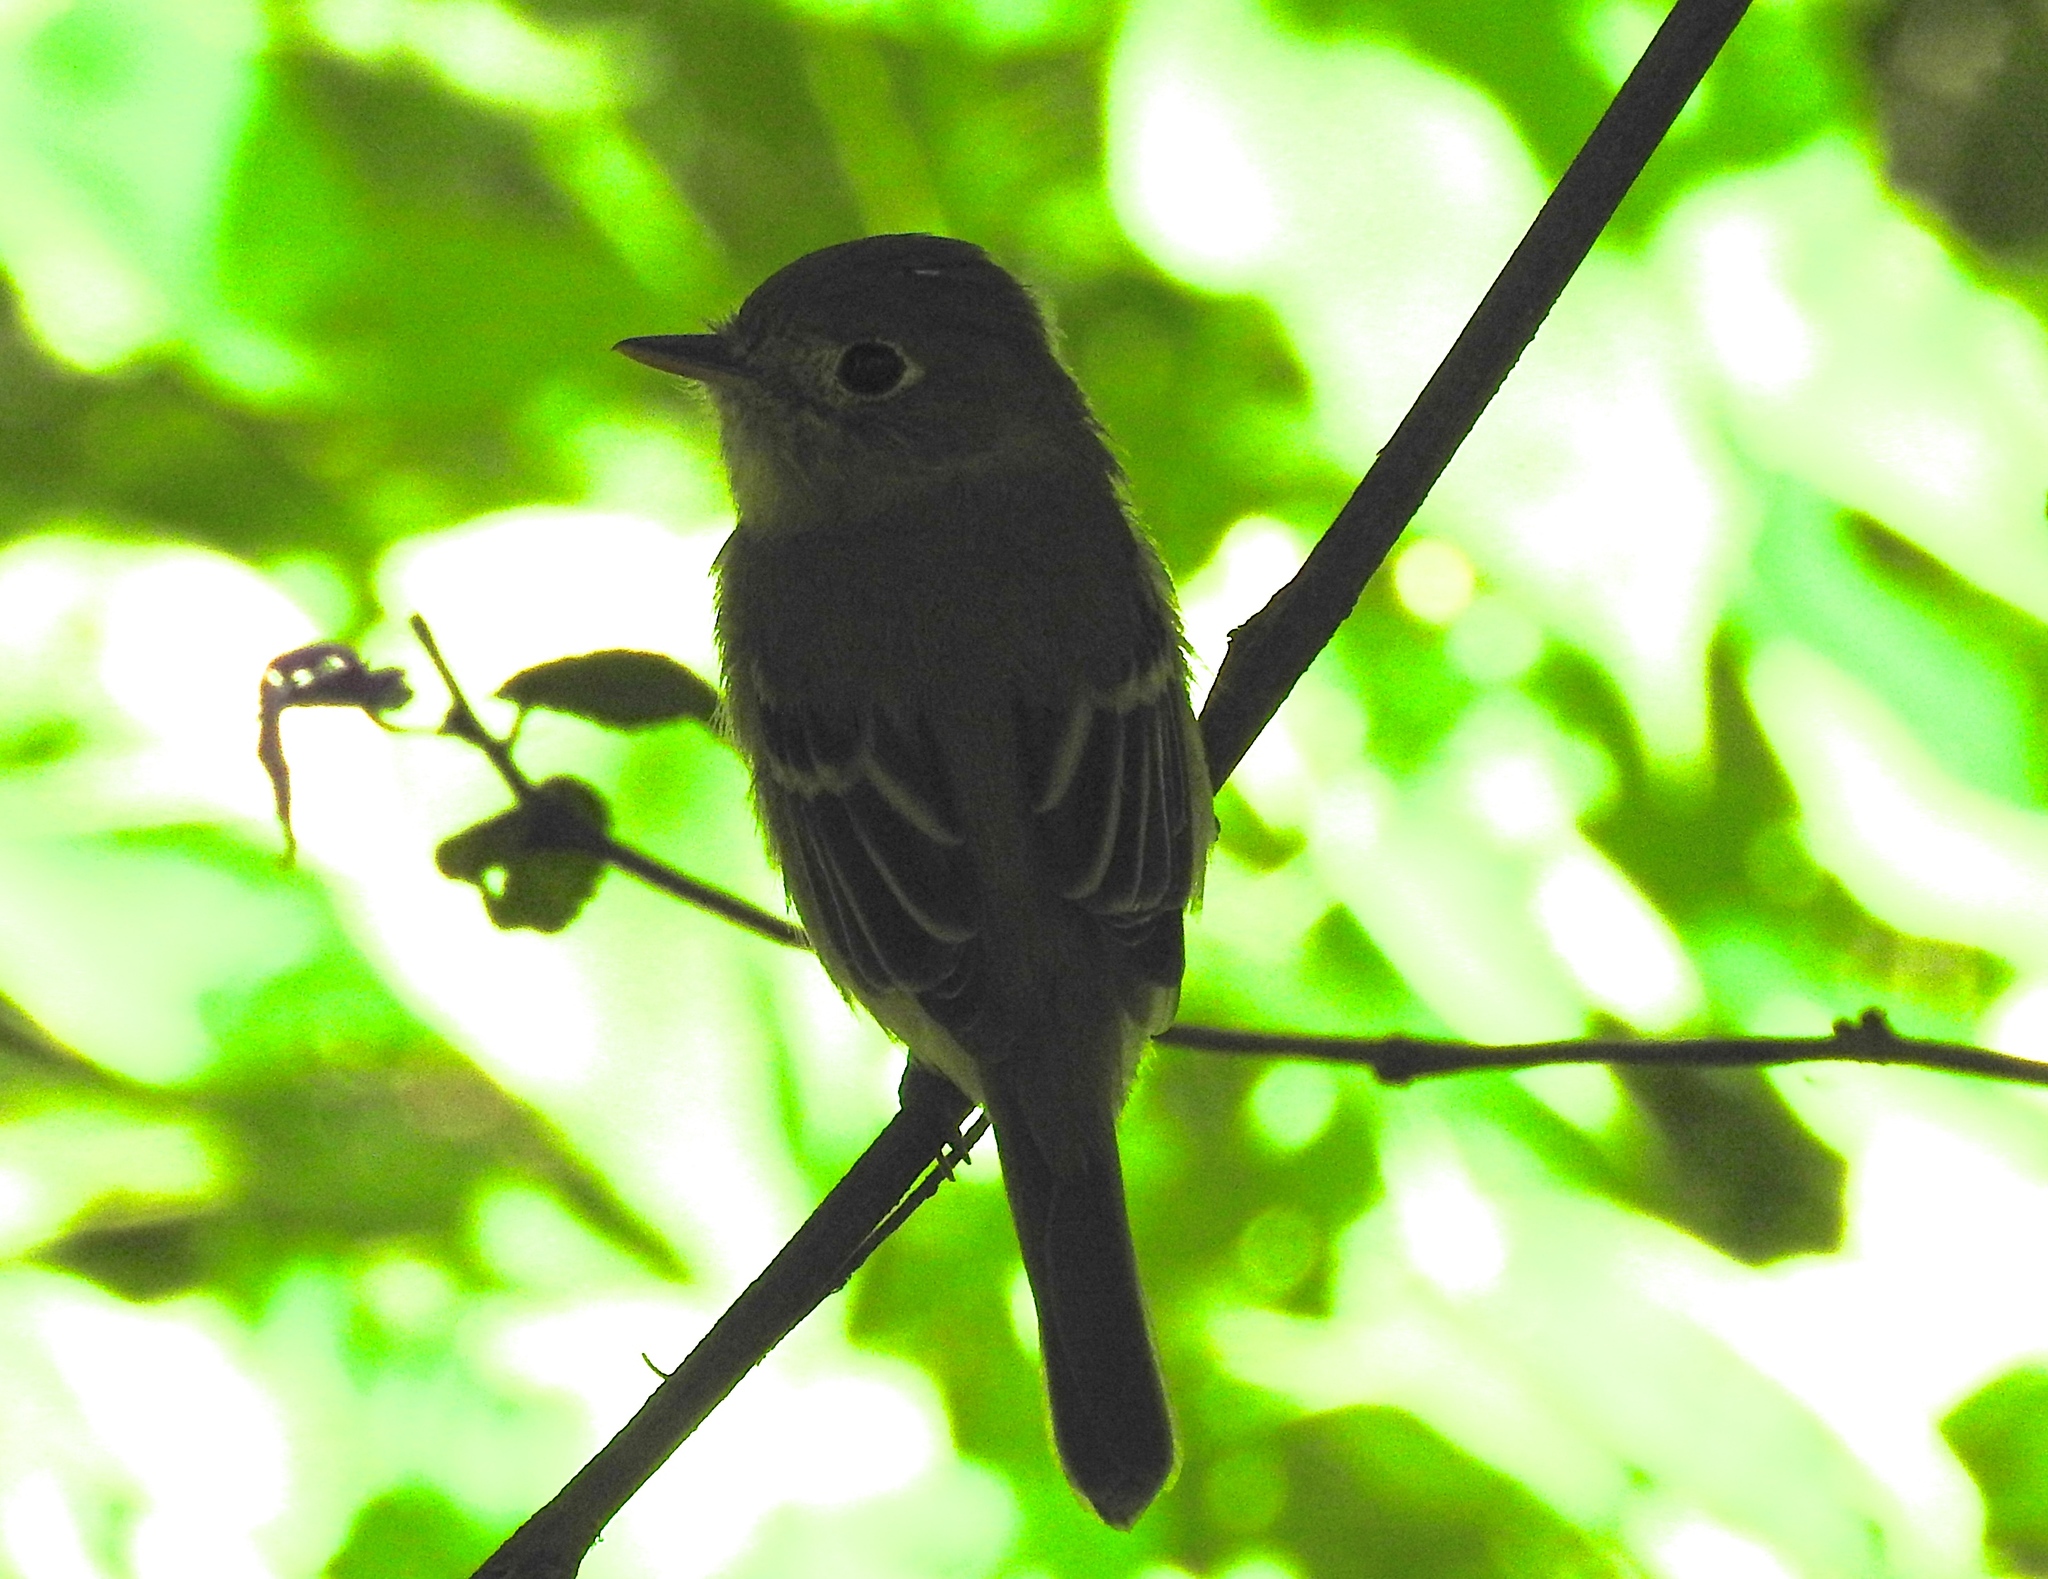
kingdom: Animalia
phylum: Chordata
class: Aves
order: Passeriformes
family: Tyrannidae
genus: Empidonax
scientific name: Empidonax
